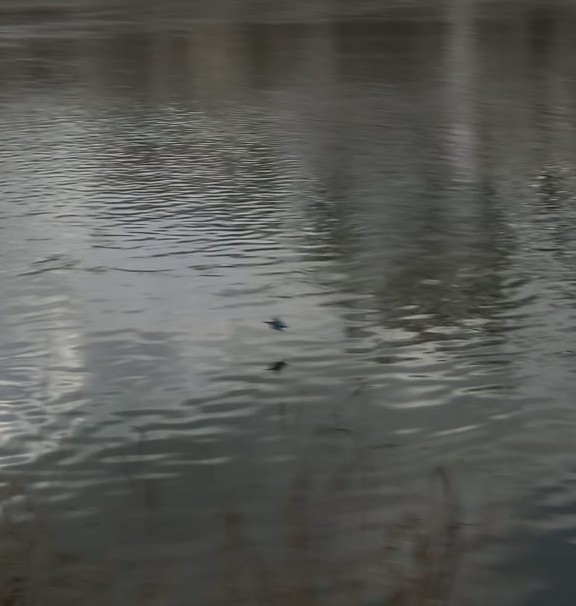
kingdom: Animalia
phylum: Chordata
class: Aves
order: Coraciiformes
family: Alcedinidae
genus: Alcedo
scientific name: Alcedo atthis
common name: Common kingfisher
